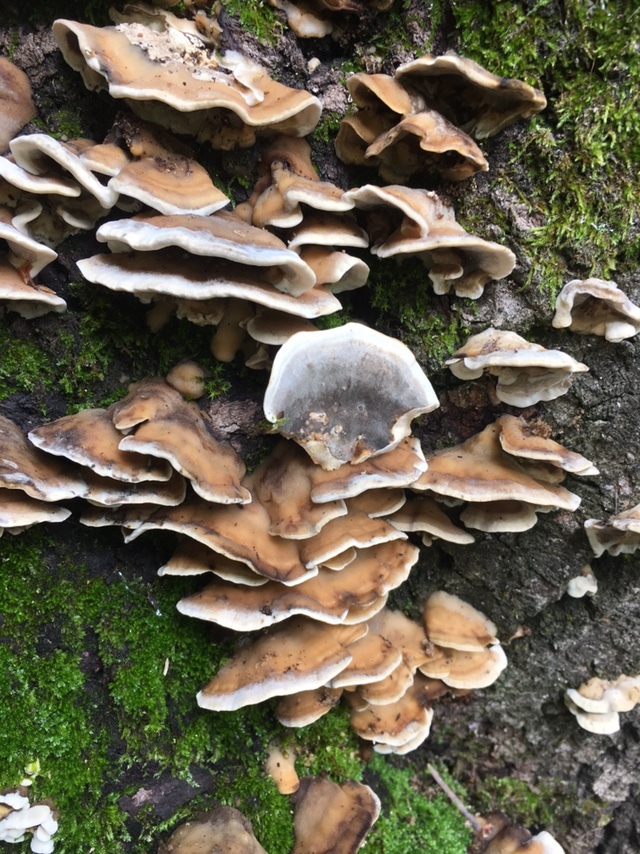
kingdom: Fungi
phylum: Basidiomycota
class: Agaricomycetes
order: Polyporales
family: Phanerochaetaceae
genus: Bjerkandera
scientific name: Bjerkandera adusta
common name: Smoky bracket
